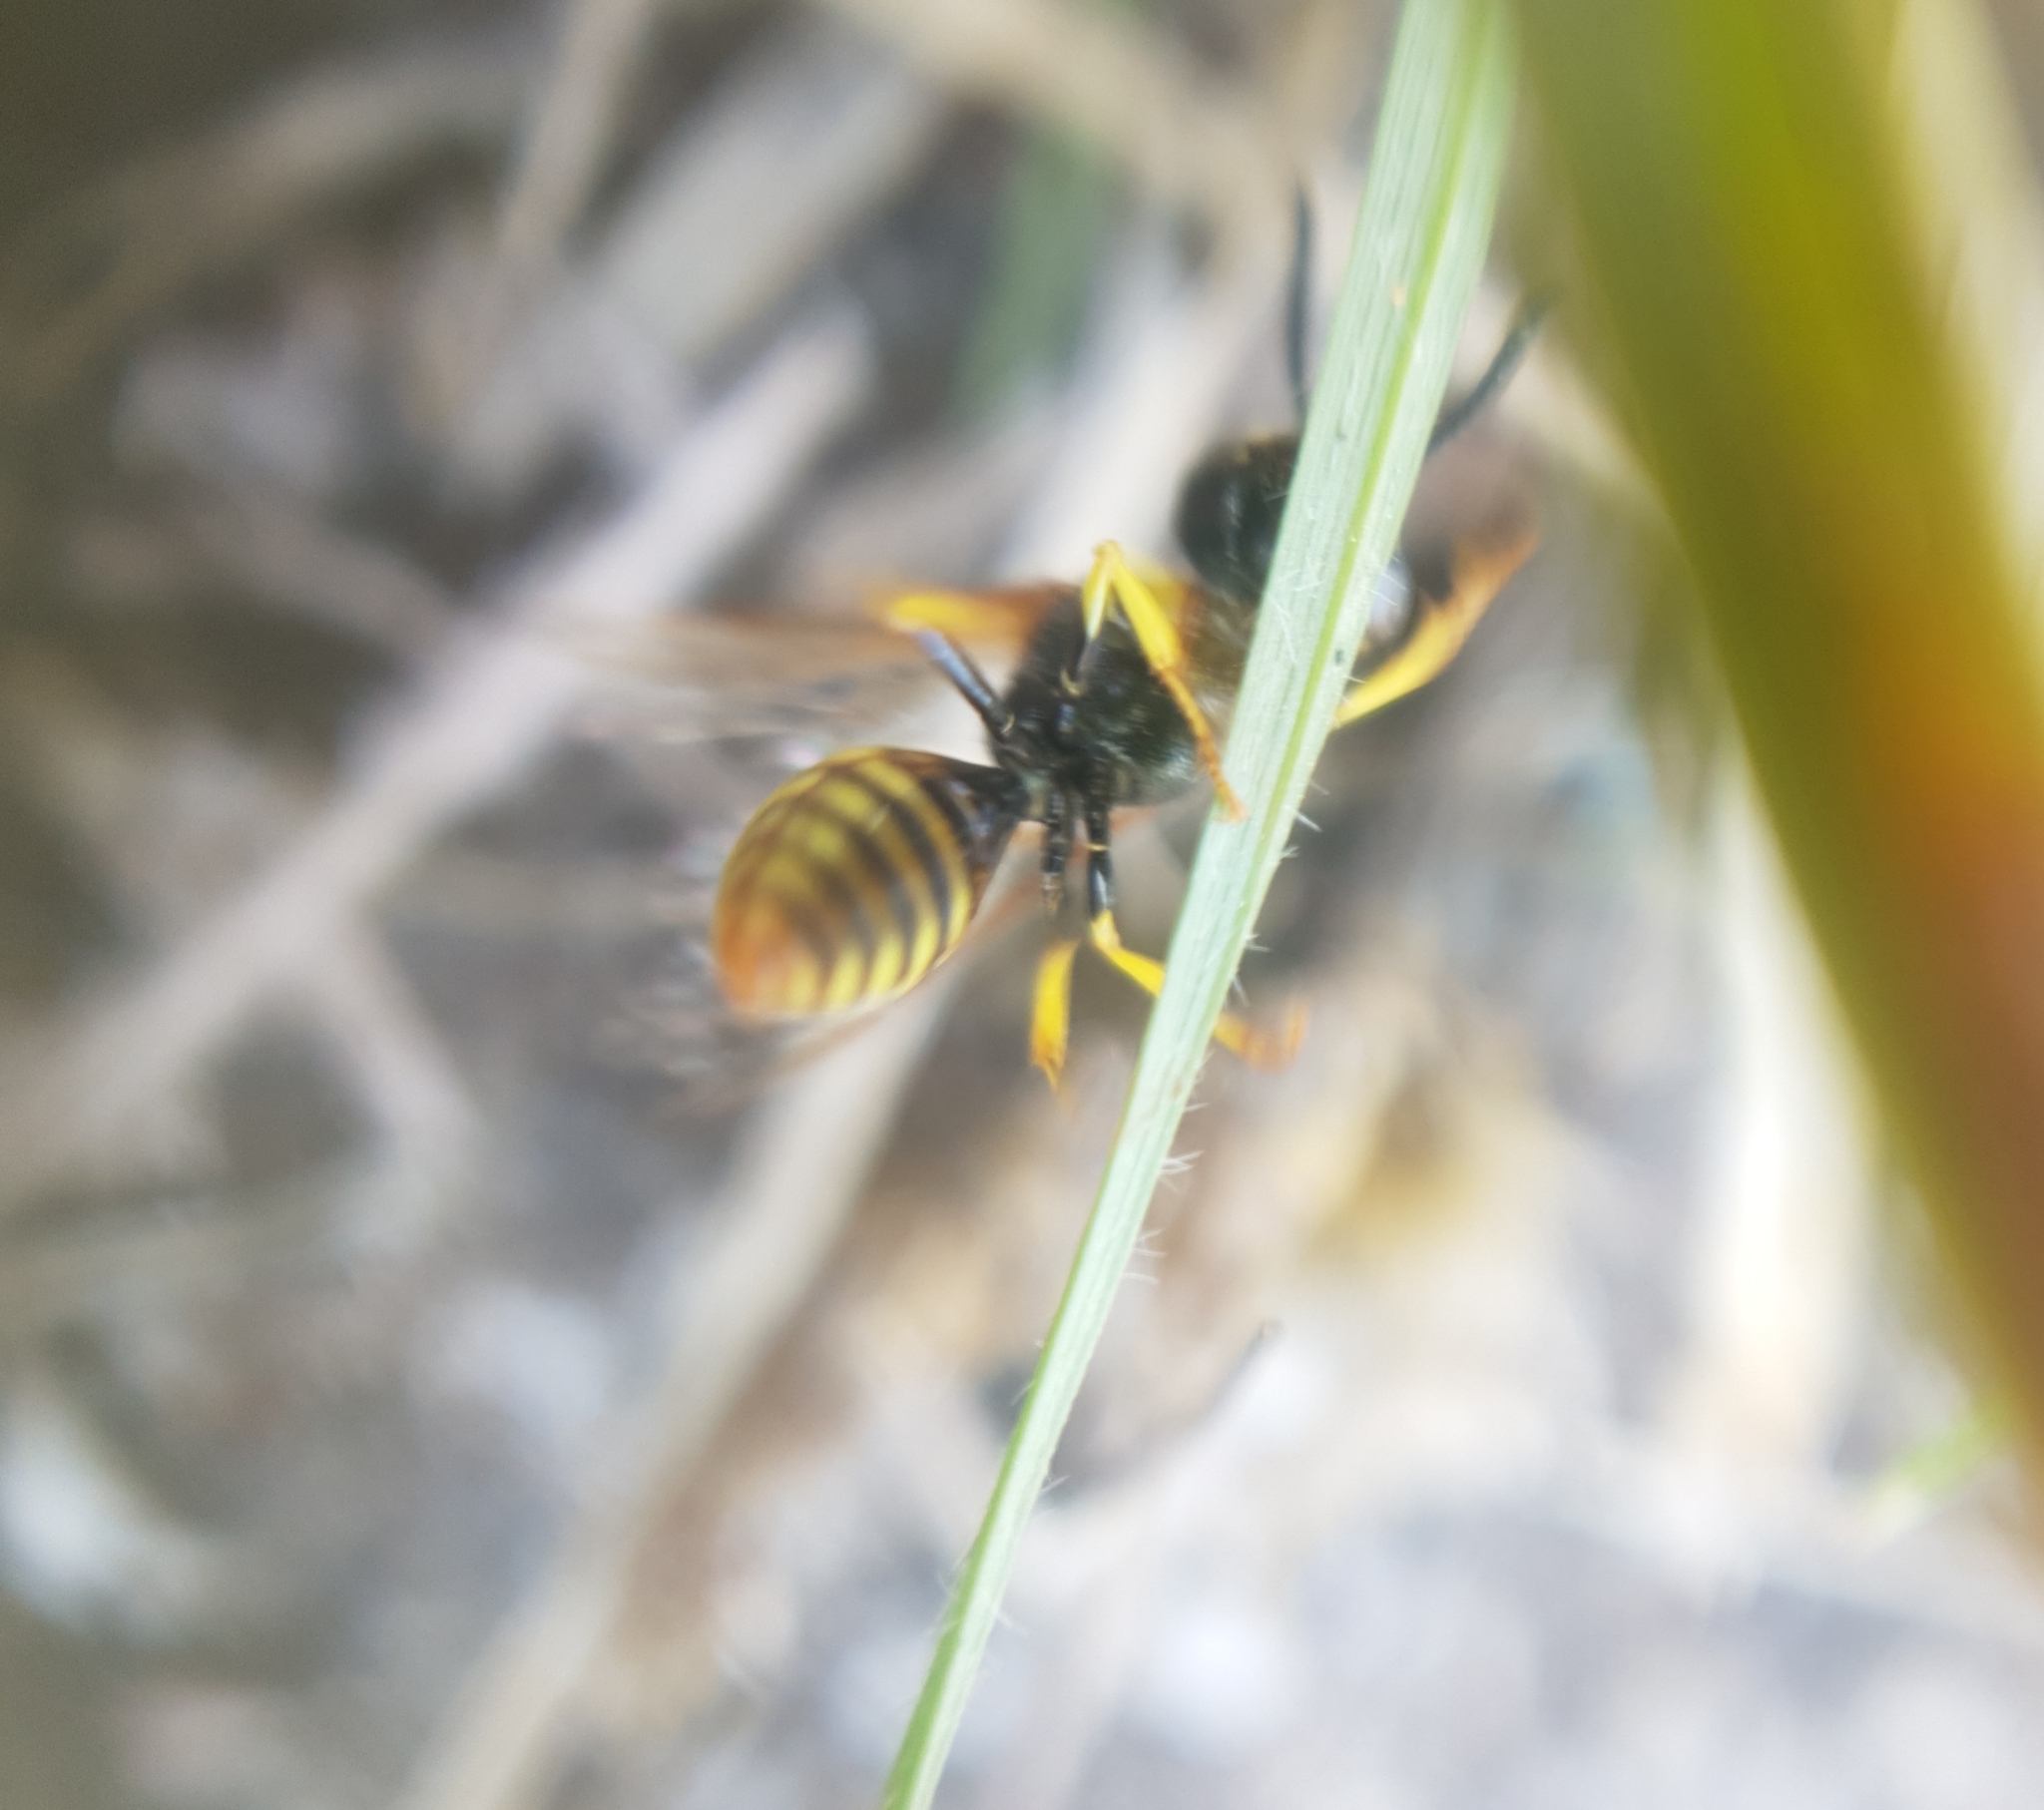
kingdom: Animalia
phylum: Arthropoda
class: Insecta
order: Hymenoptera
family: Crabronidae
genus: Philanthus
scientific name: Philanthus triangulum
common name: Bee wolf
